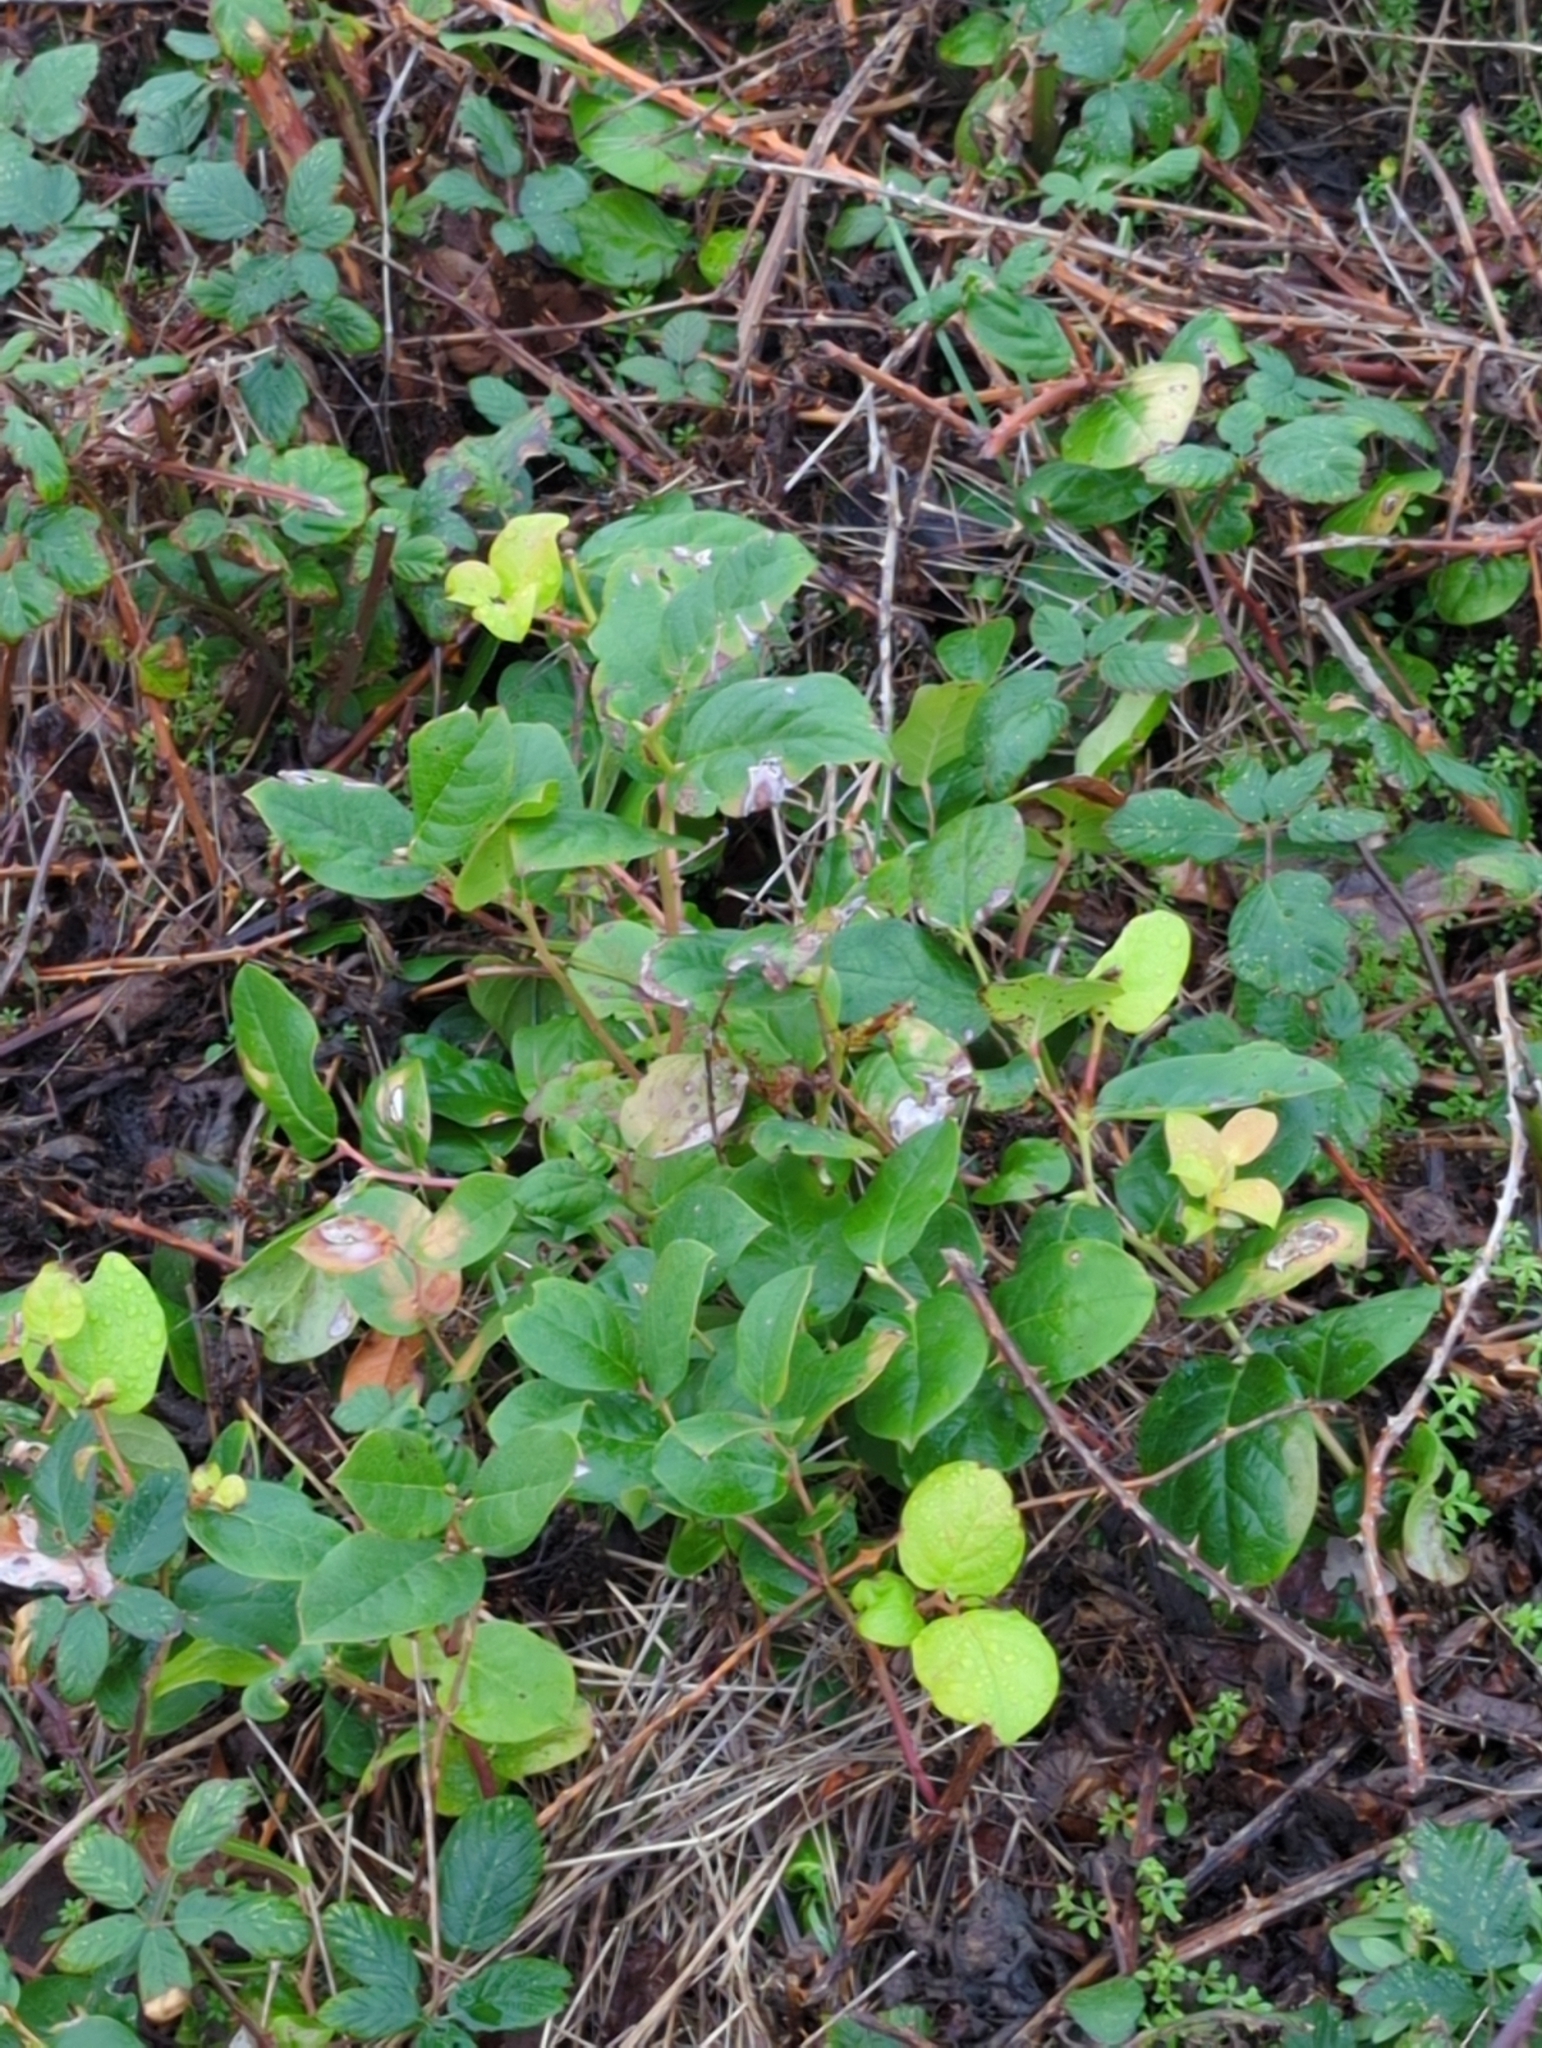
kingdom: Plantae
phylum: Tracheophyta
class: Magnoliopsida
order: Ericales
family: Ericaceae
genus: Gaultheria
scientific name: Gaultheria shallon
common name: Shallon
